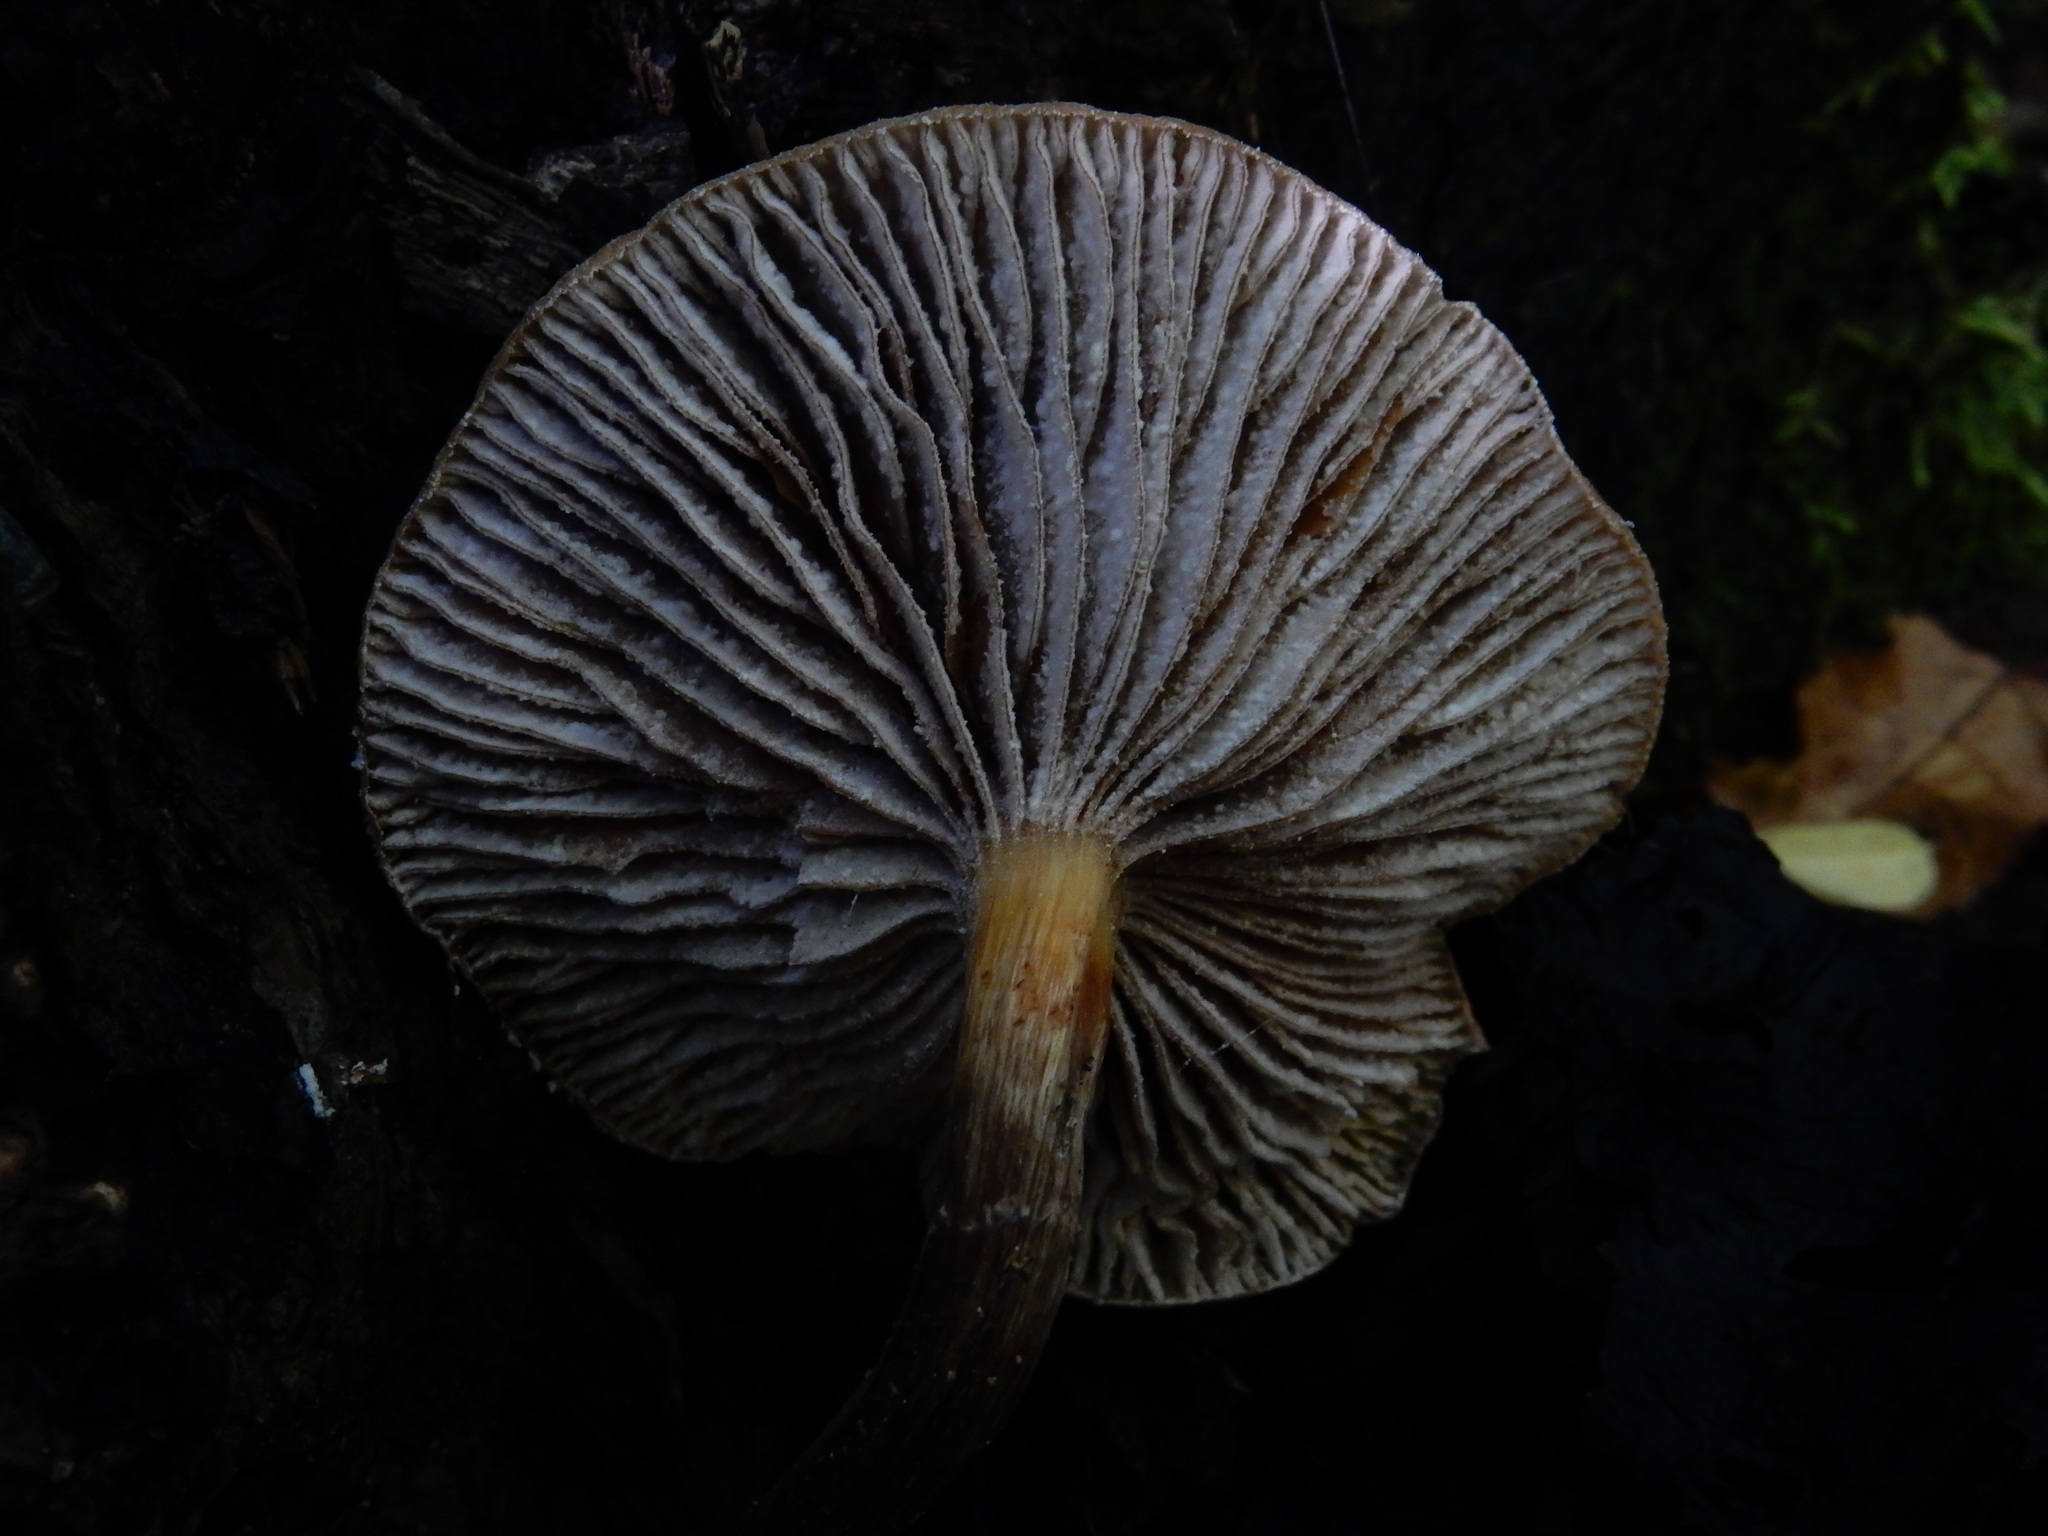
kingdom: Fungi
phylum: Basidiomycota
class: Agaricomycetes
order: Agaricales
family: Physalacriaceae
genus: Armillaria
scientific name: Armillaria novae-zelandiae
